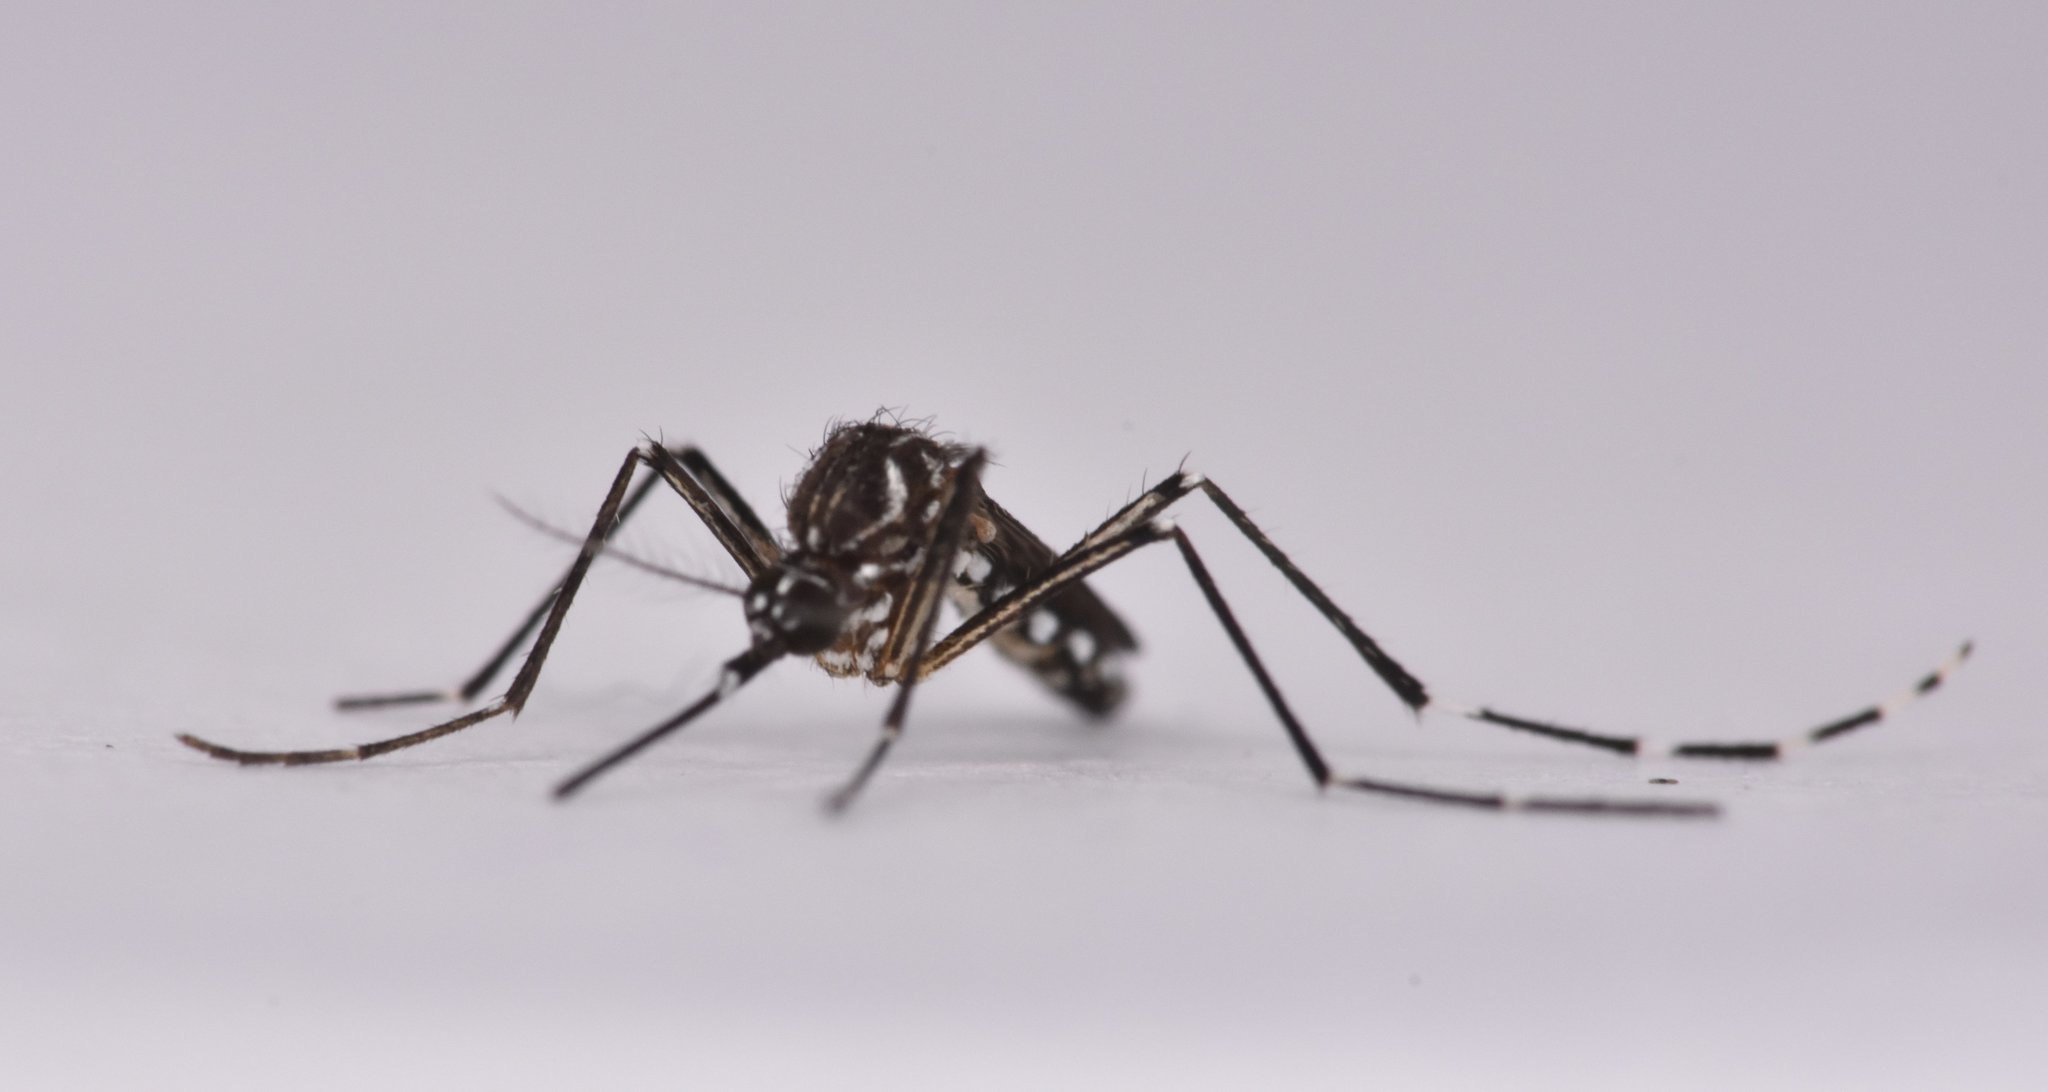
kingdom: Animalia
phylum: Arthropoda
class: Insecta
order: Diptera
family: Culicidae
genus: Aedes
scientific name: Aedes aegypti
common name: Yellow fever mosquito
